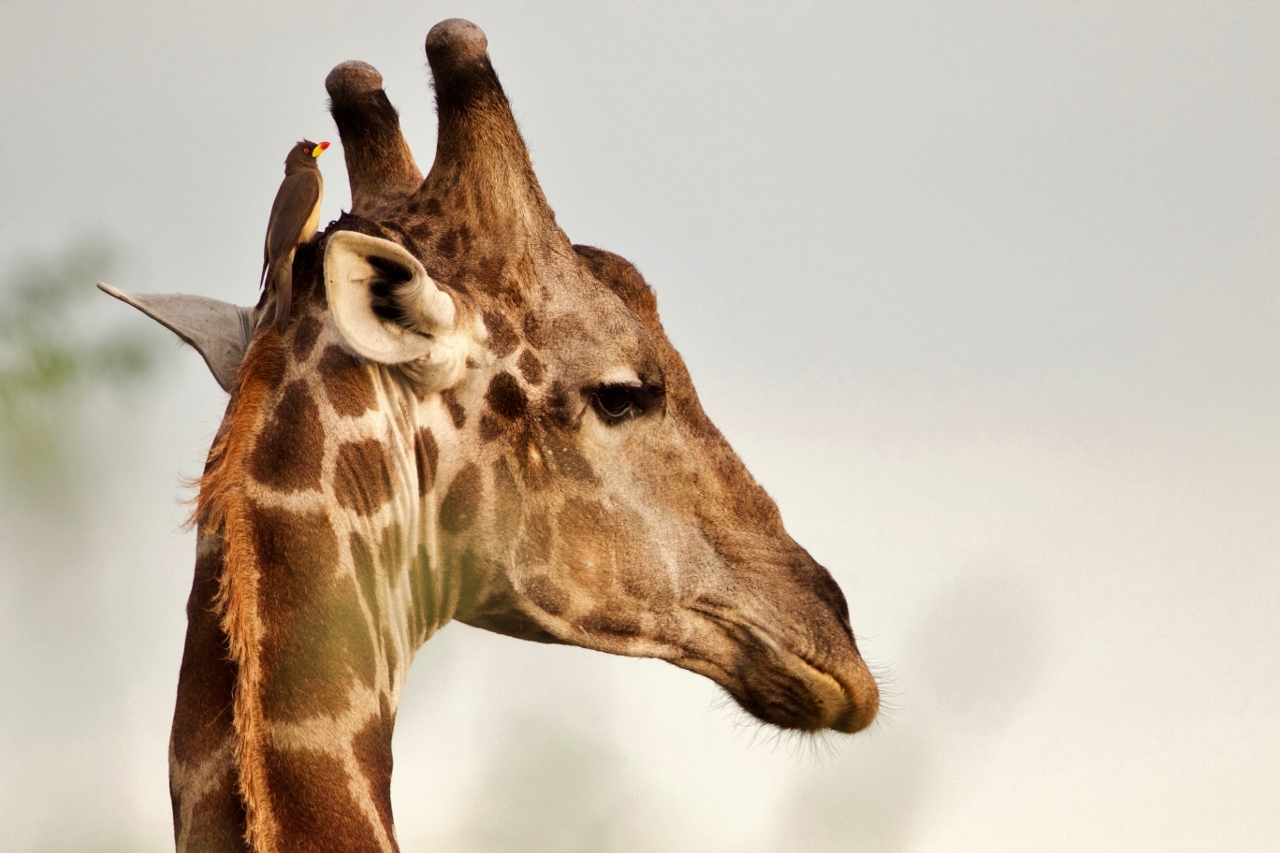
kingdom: Animalia
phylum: Chordata
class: Mammalia
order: Artiodactyla
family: Giraffidae
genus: Giraffa
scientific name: Giraffa giraffa
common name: Southern giraffe
